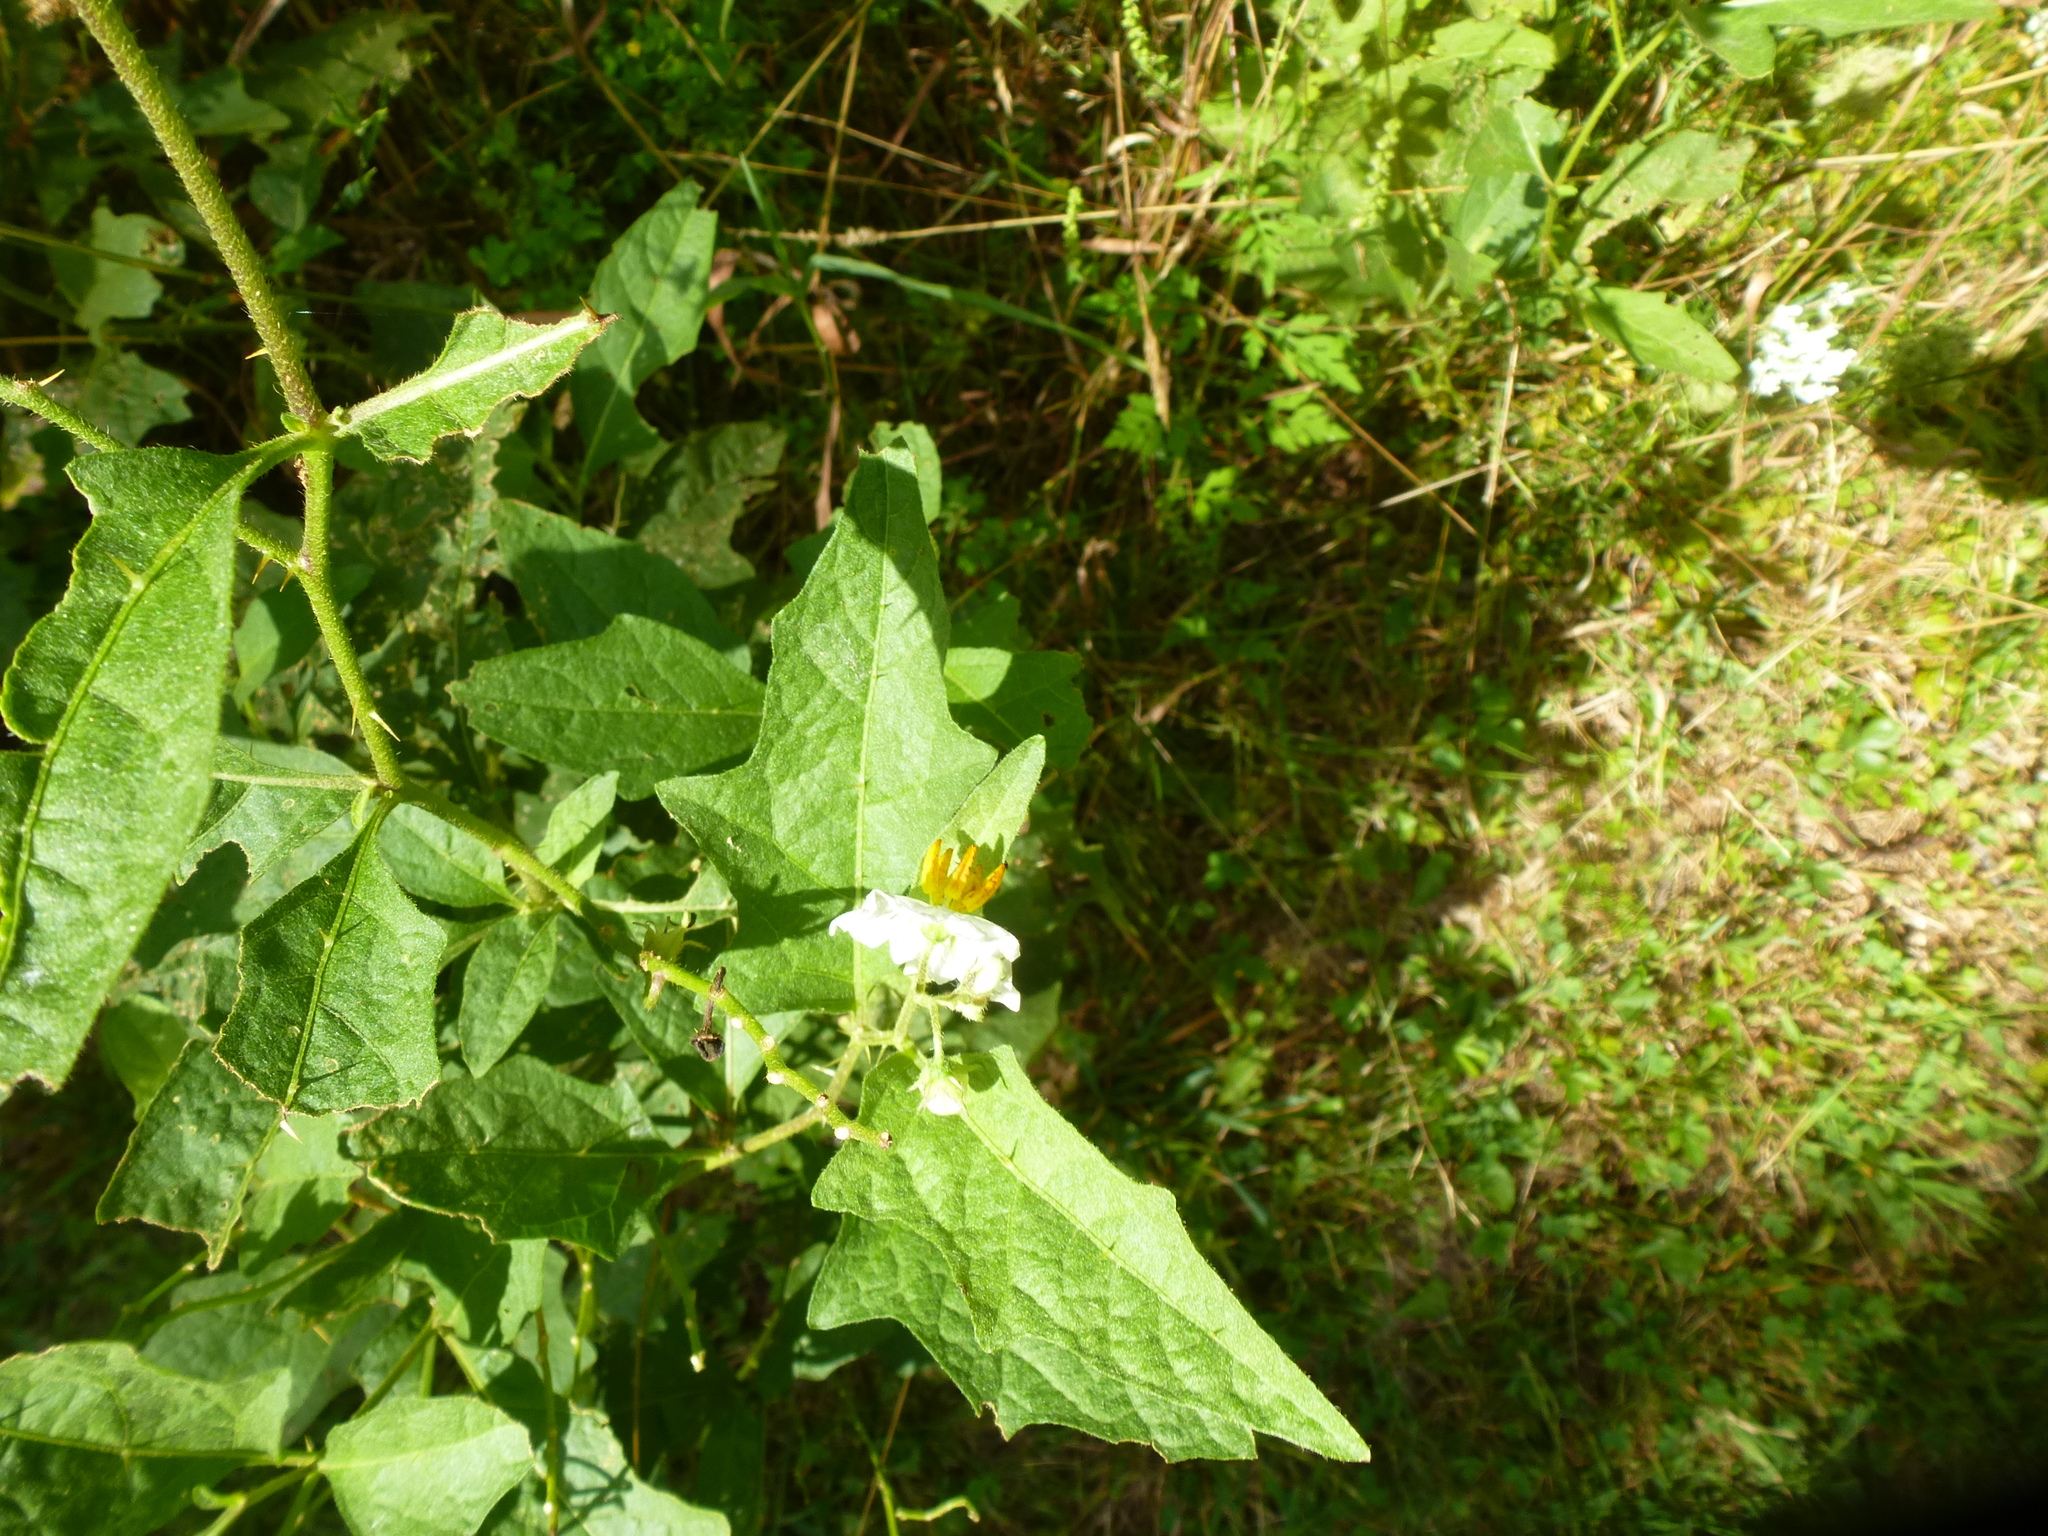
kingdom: Plantae
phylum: Tracheophyta
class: Magnoliopsida
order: Solanales
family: Solanaceae
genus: Solanum
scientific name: Solanum carolinense
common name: Horse-nettle
